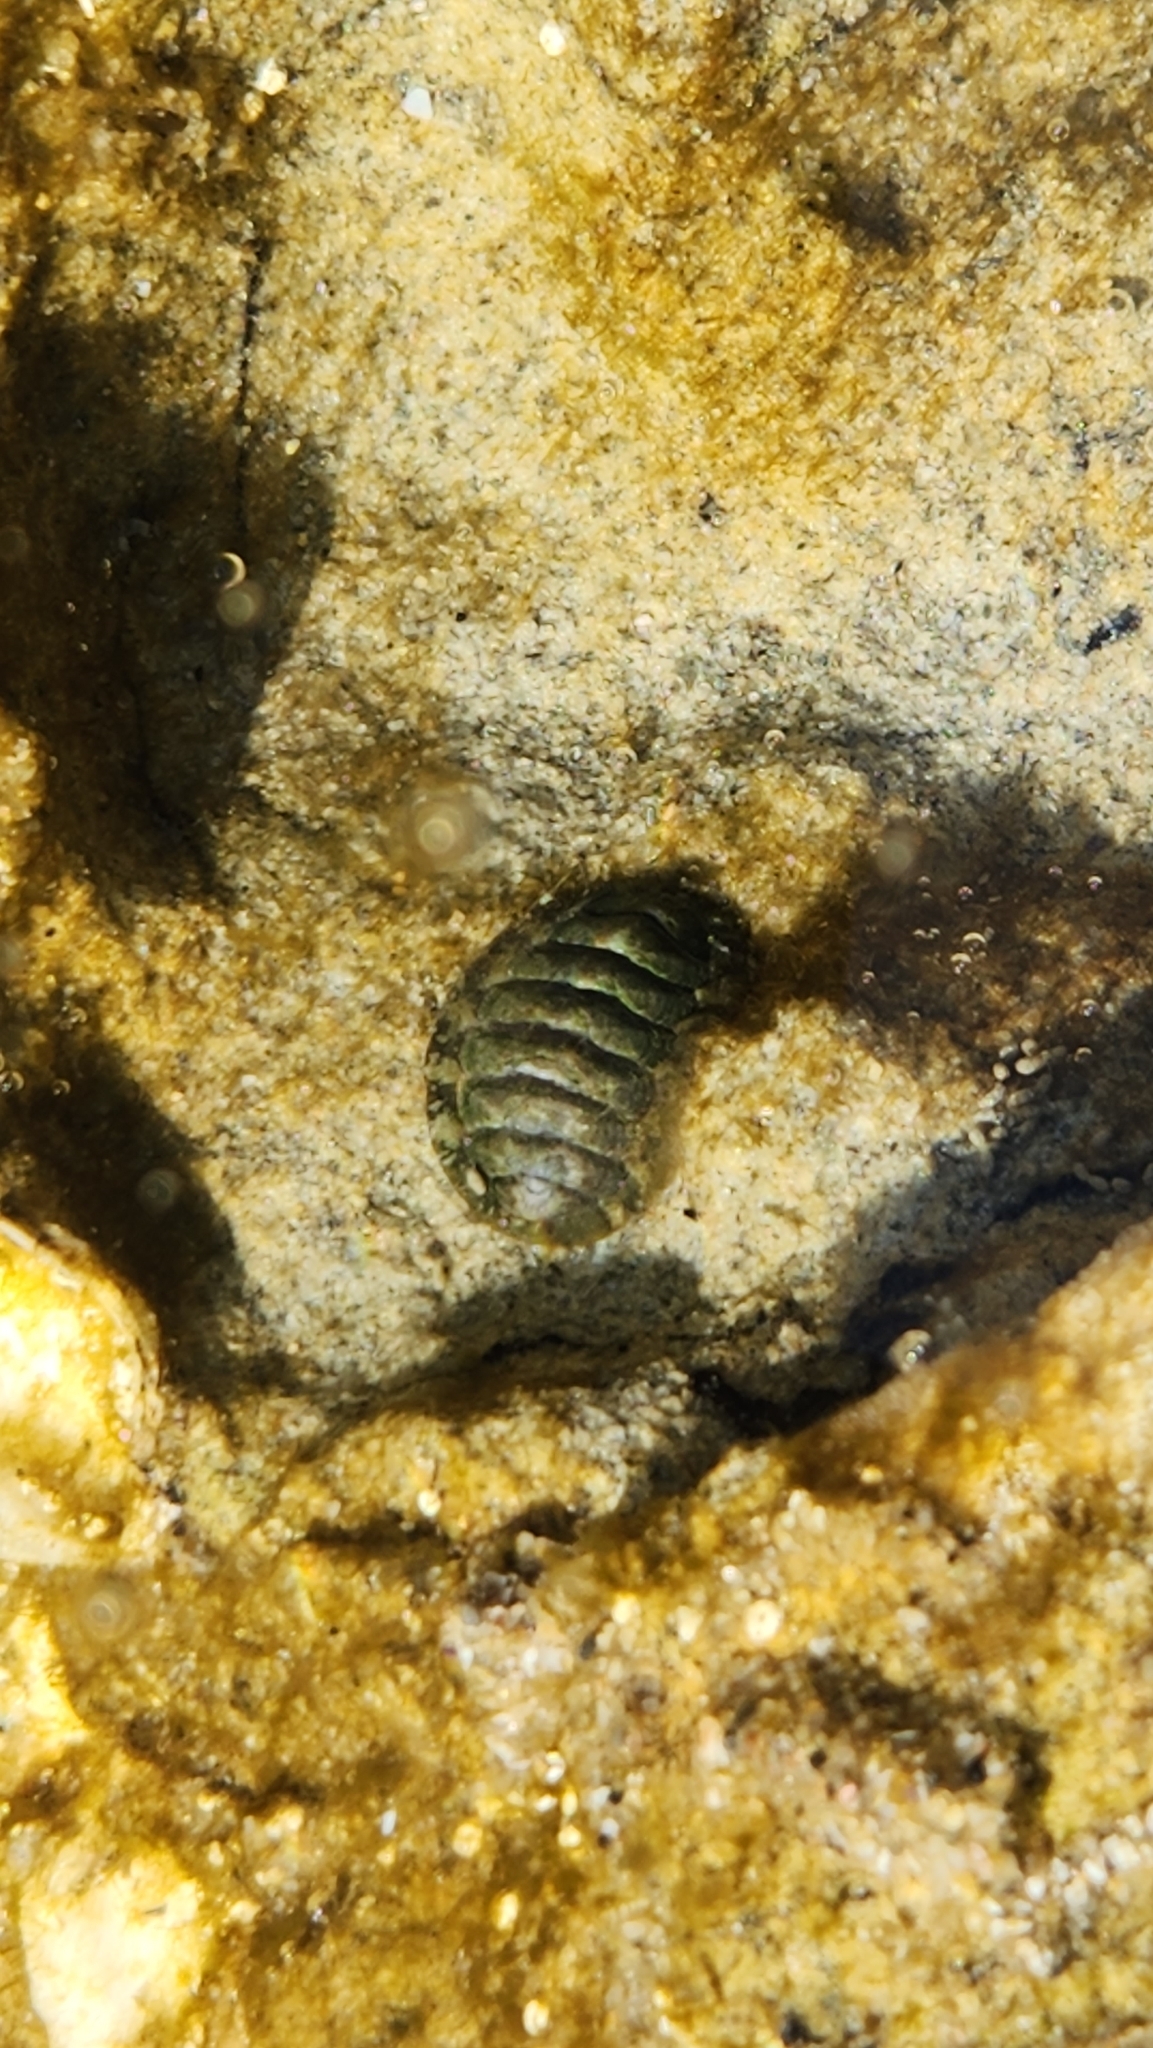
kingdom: Animalia
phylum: Mollusca
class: Polyplacophora
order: Chitonida
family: Tonicellidae
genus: Cyanoplax
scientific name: Cyanoplax hartwegii
